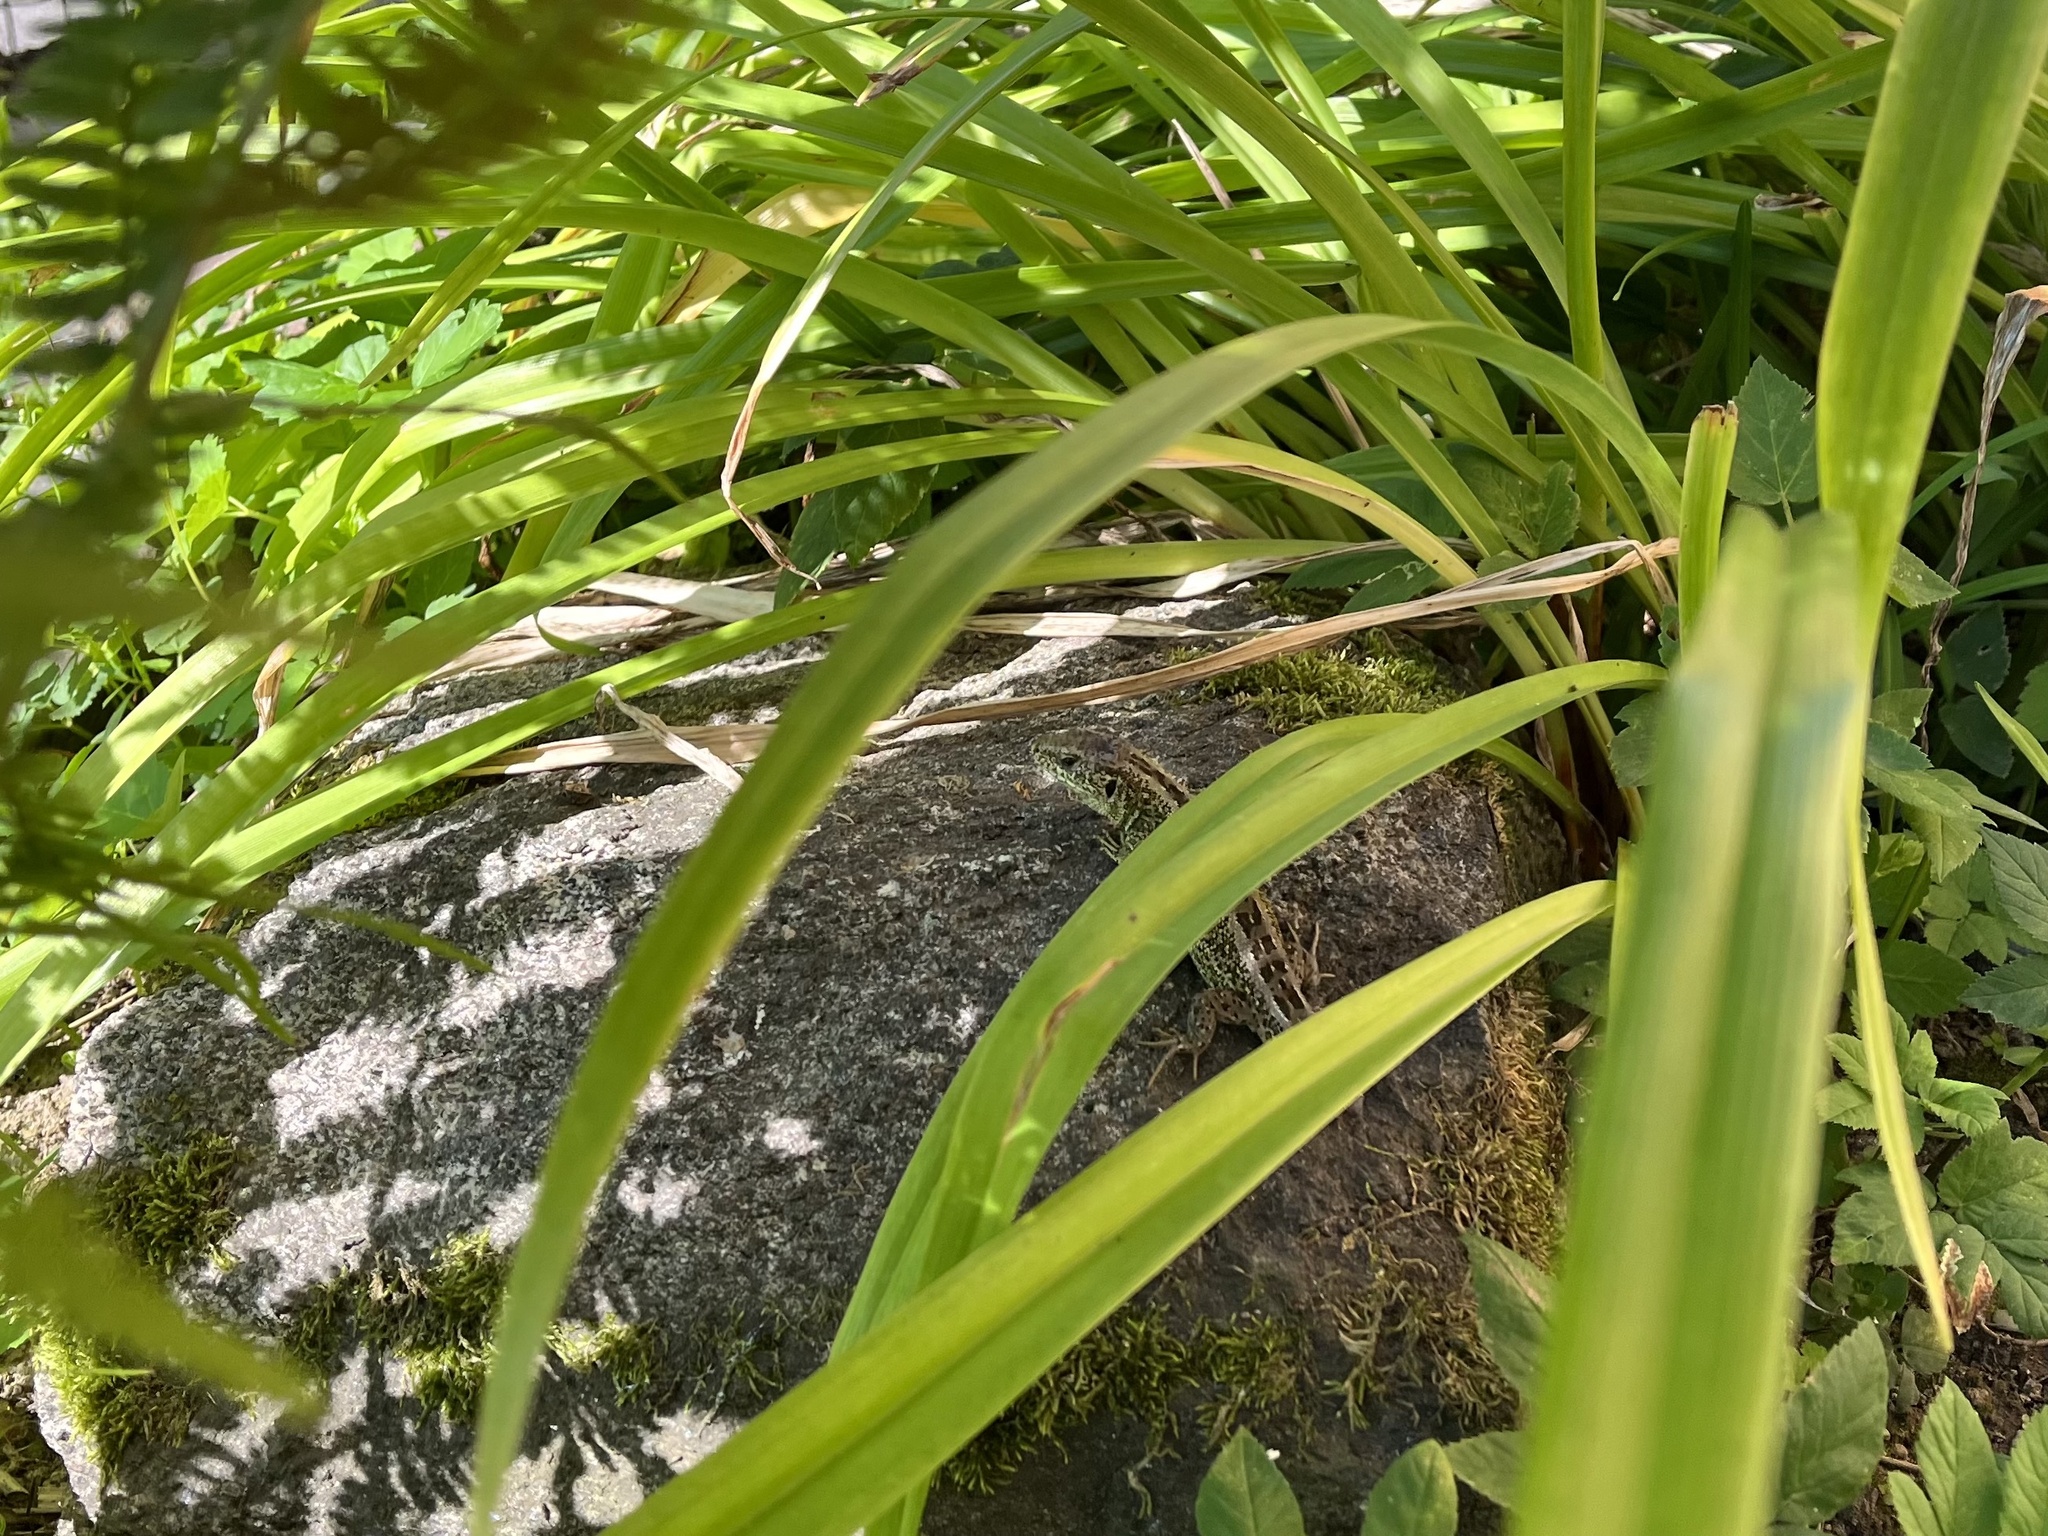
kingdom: Animalia
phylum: Chordata
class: Squamata
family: Lacertidae
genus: Lacerta
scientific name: Lacerta agilis
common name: Sand lizard
